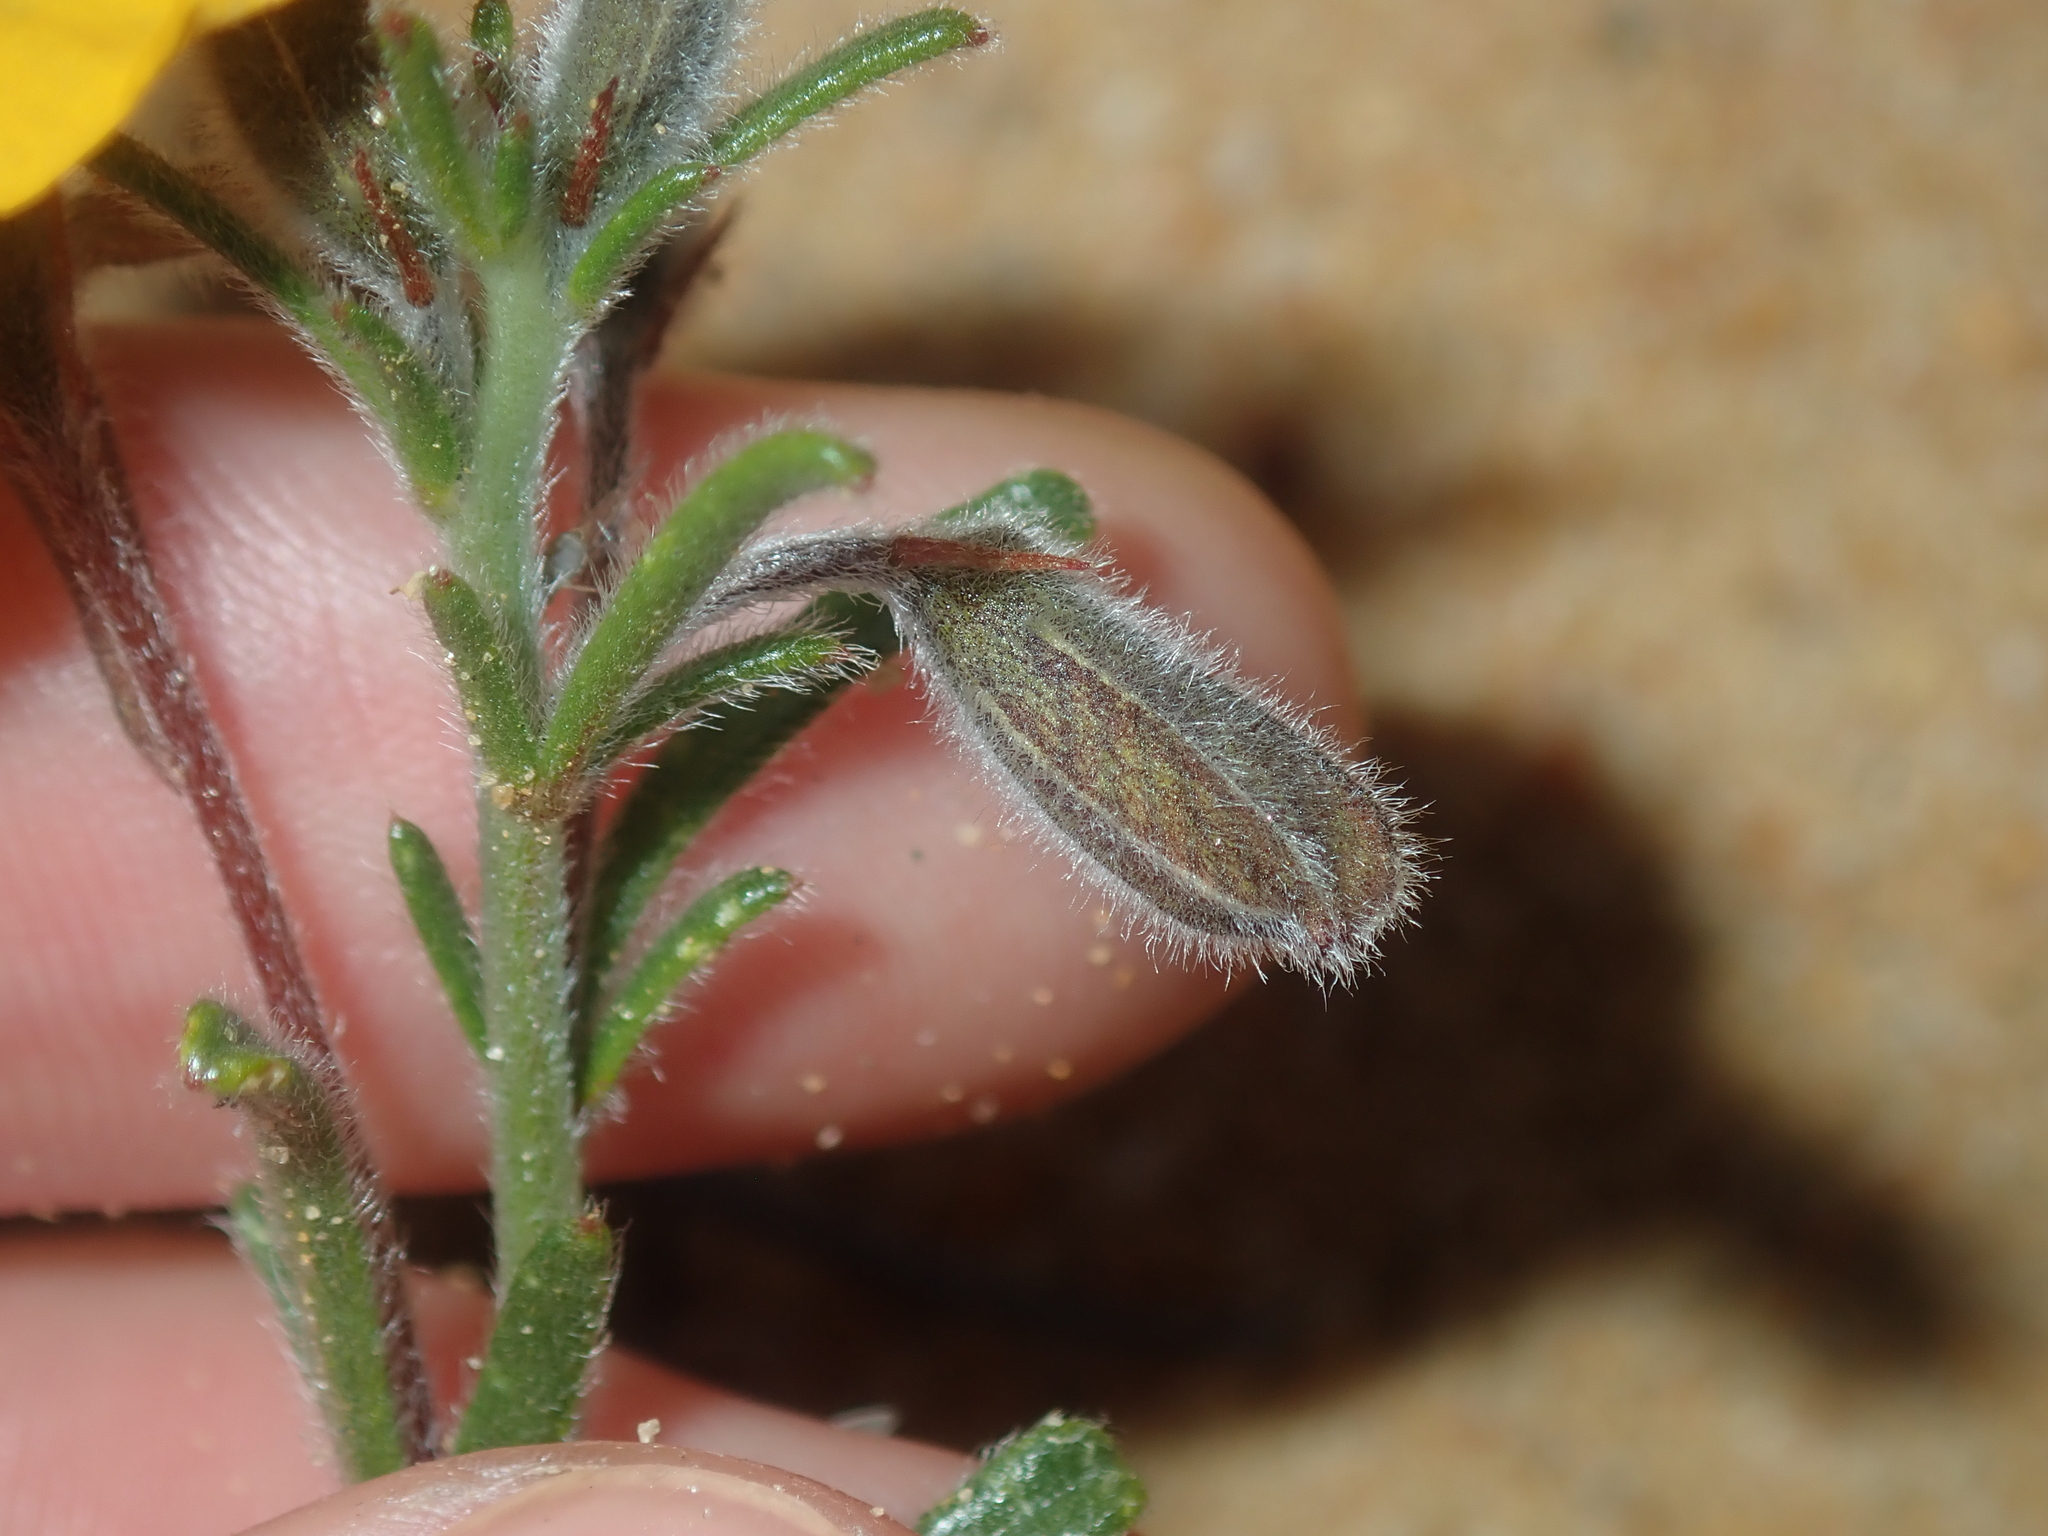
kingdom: Plantae
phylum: Tracheophyta
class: Magnoliopsida
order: Fabales
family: Fabaceae
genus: Isotropis
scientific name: Isotropis cuneifolia
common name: Granny bonnets
